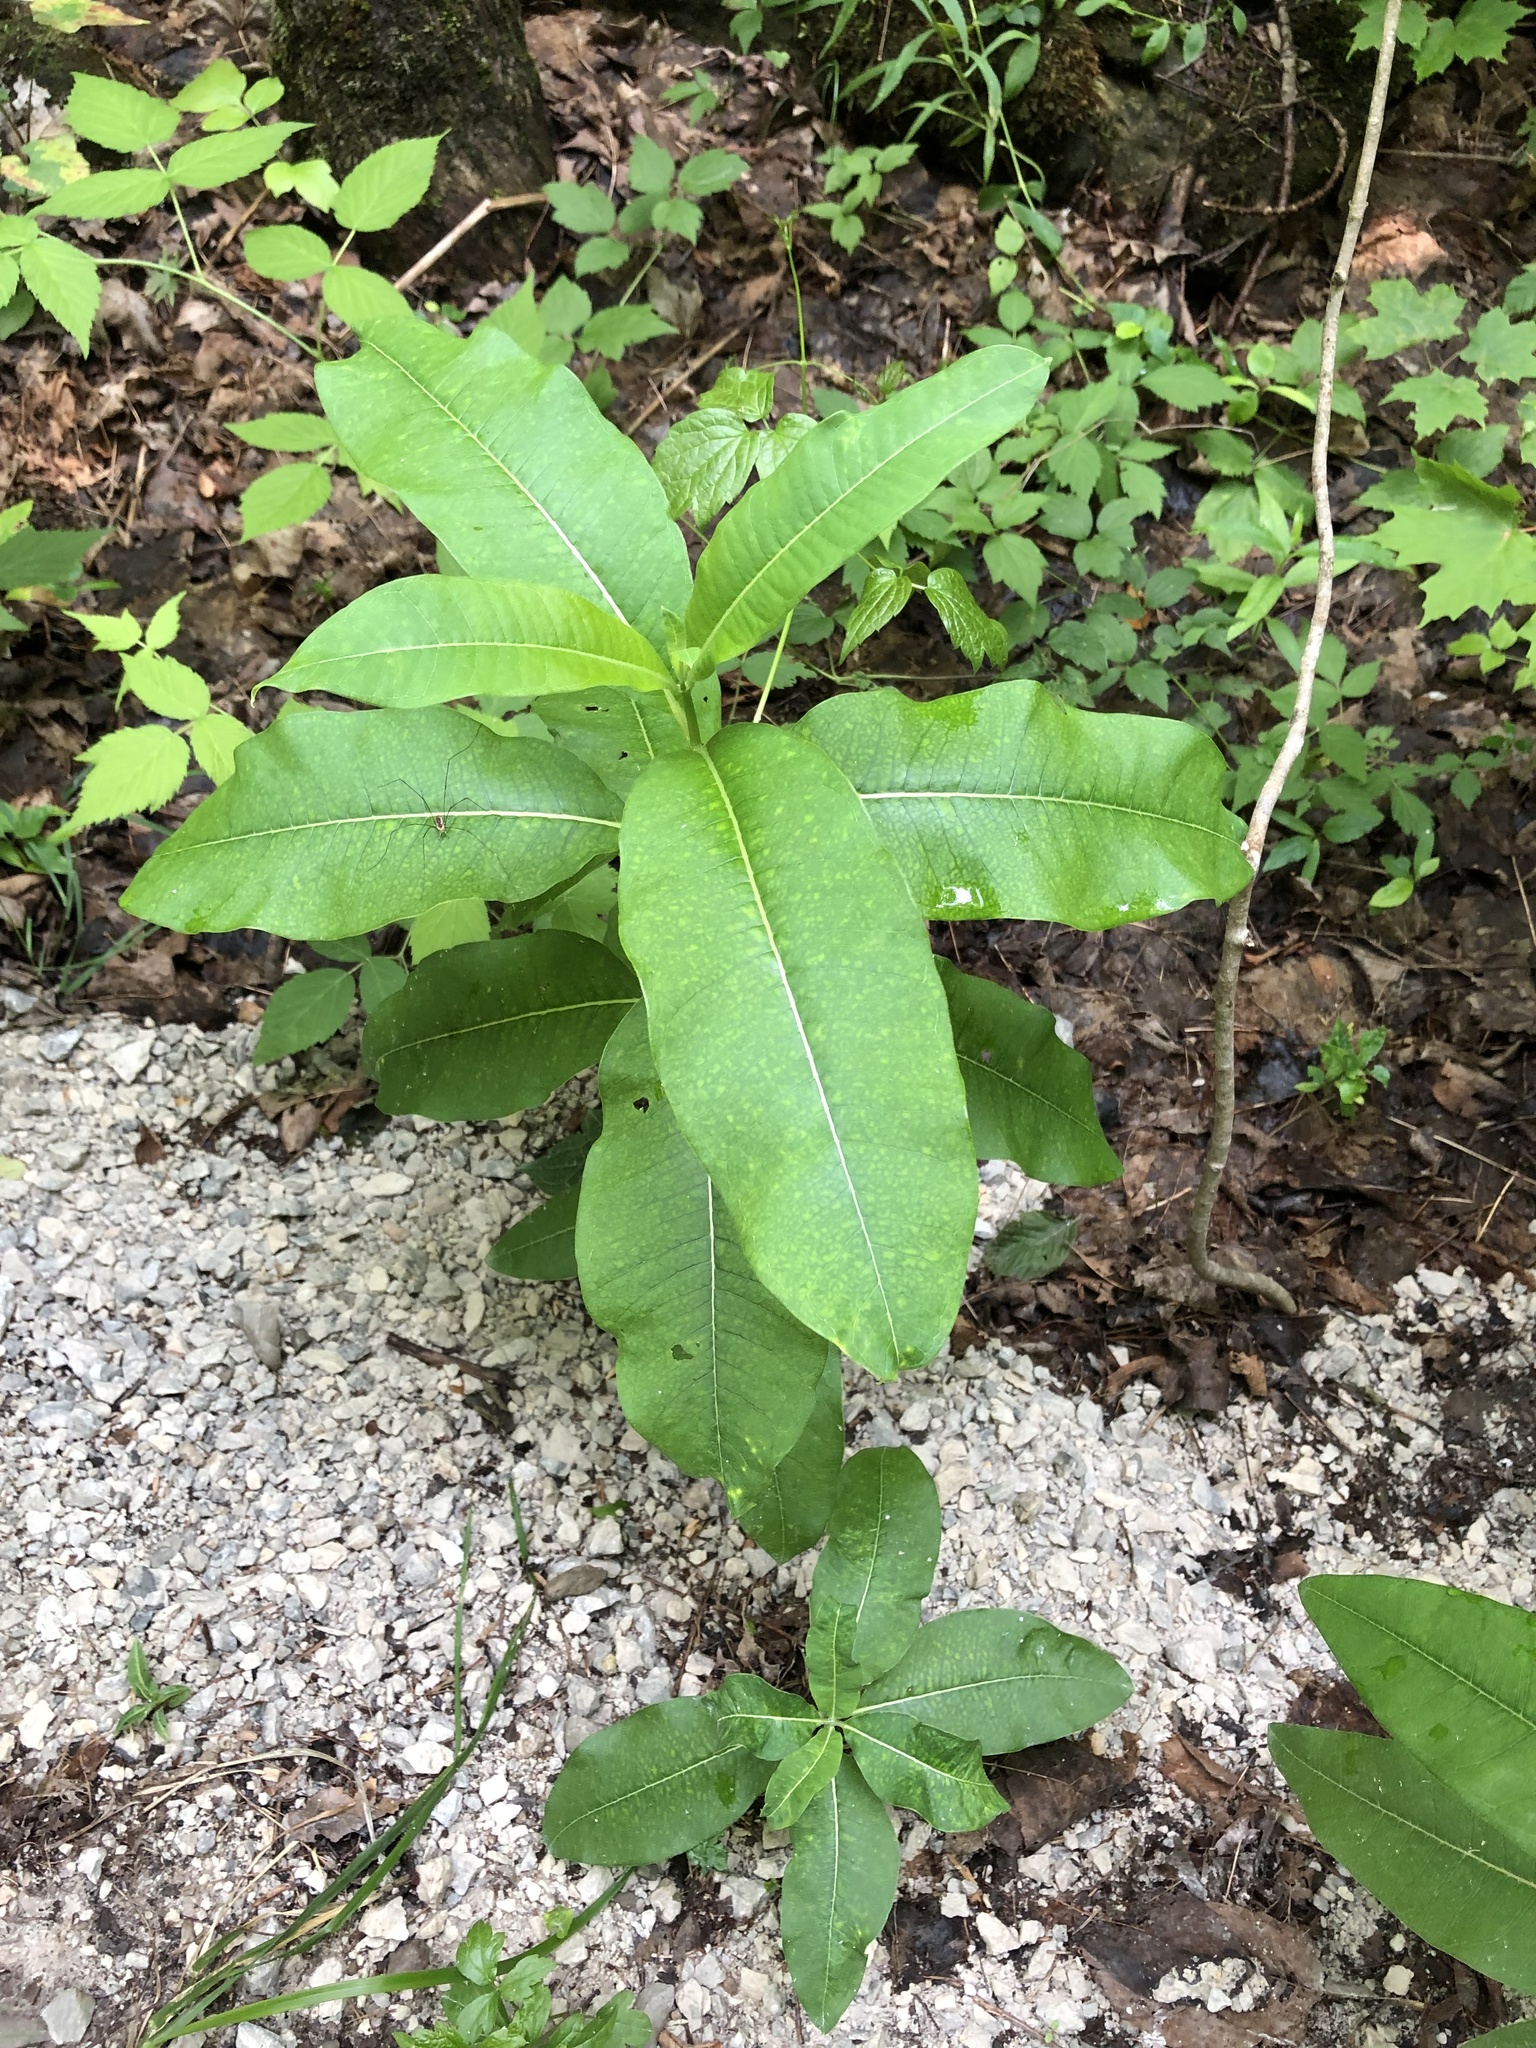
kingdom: Plantae
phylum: Tracheophyta
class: Magnoliopsida
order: Gentianales
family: Apocynaceae
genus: Asclepias
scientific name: Asclepias syriaca
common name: Common milkweed
